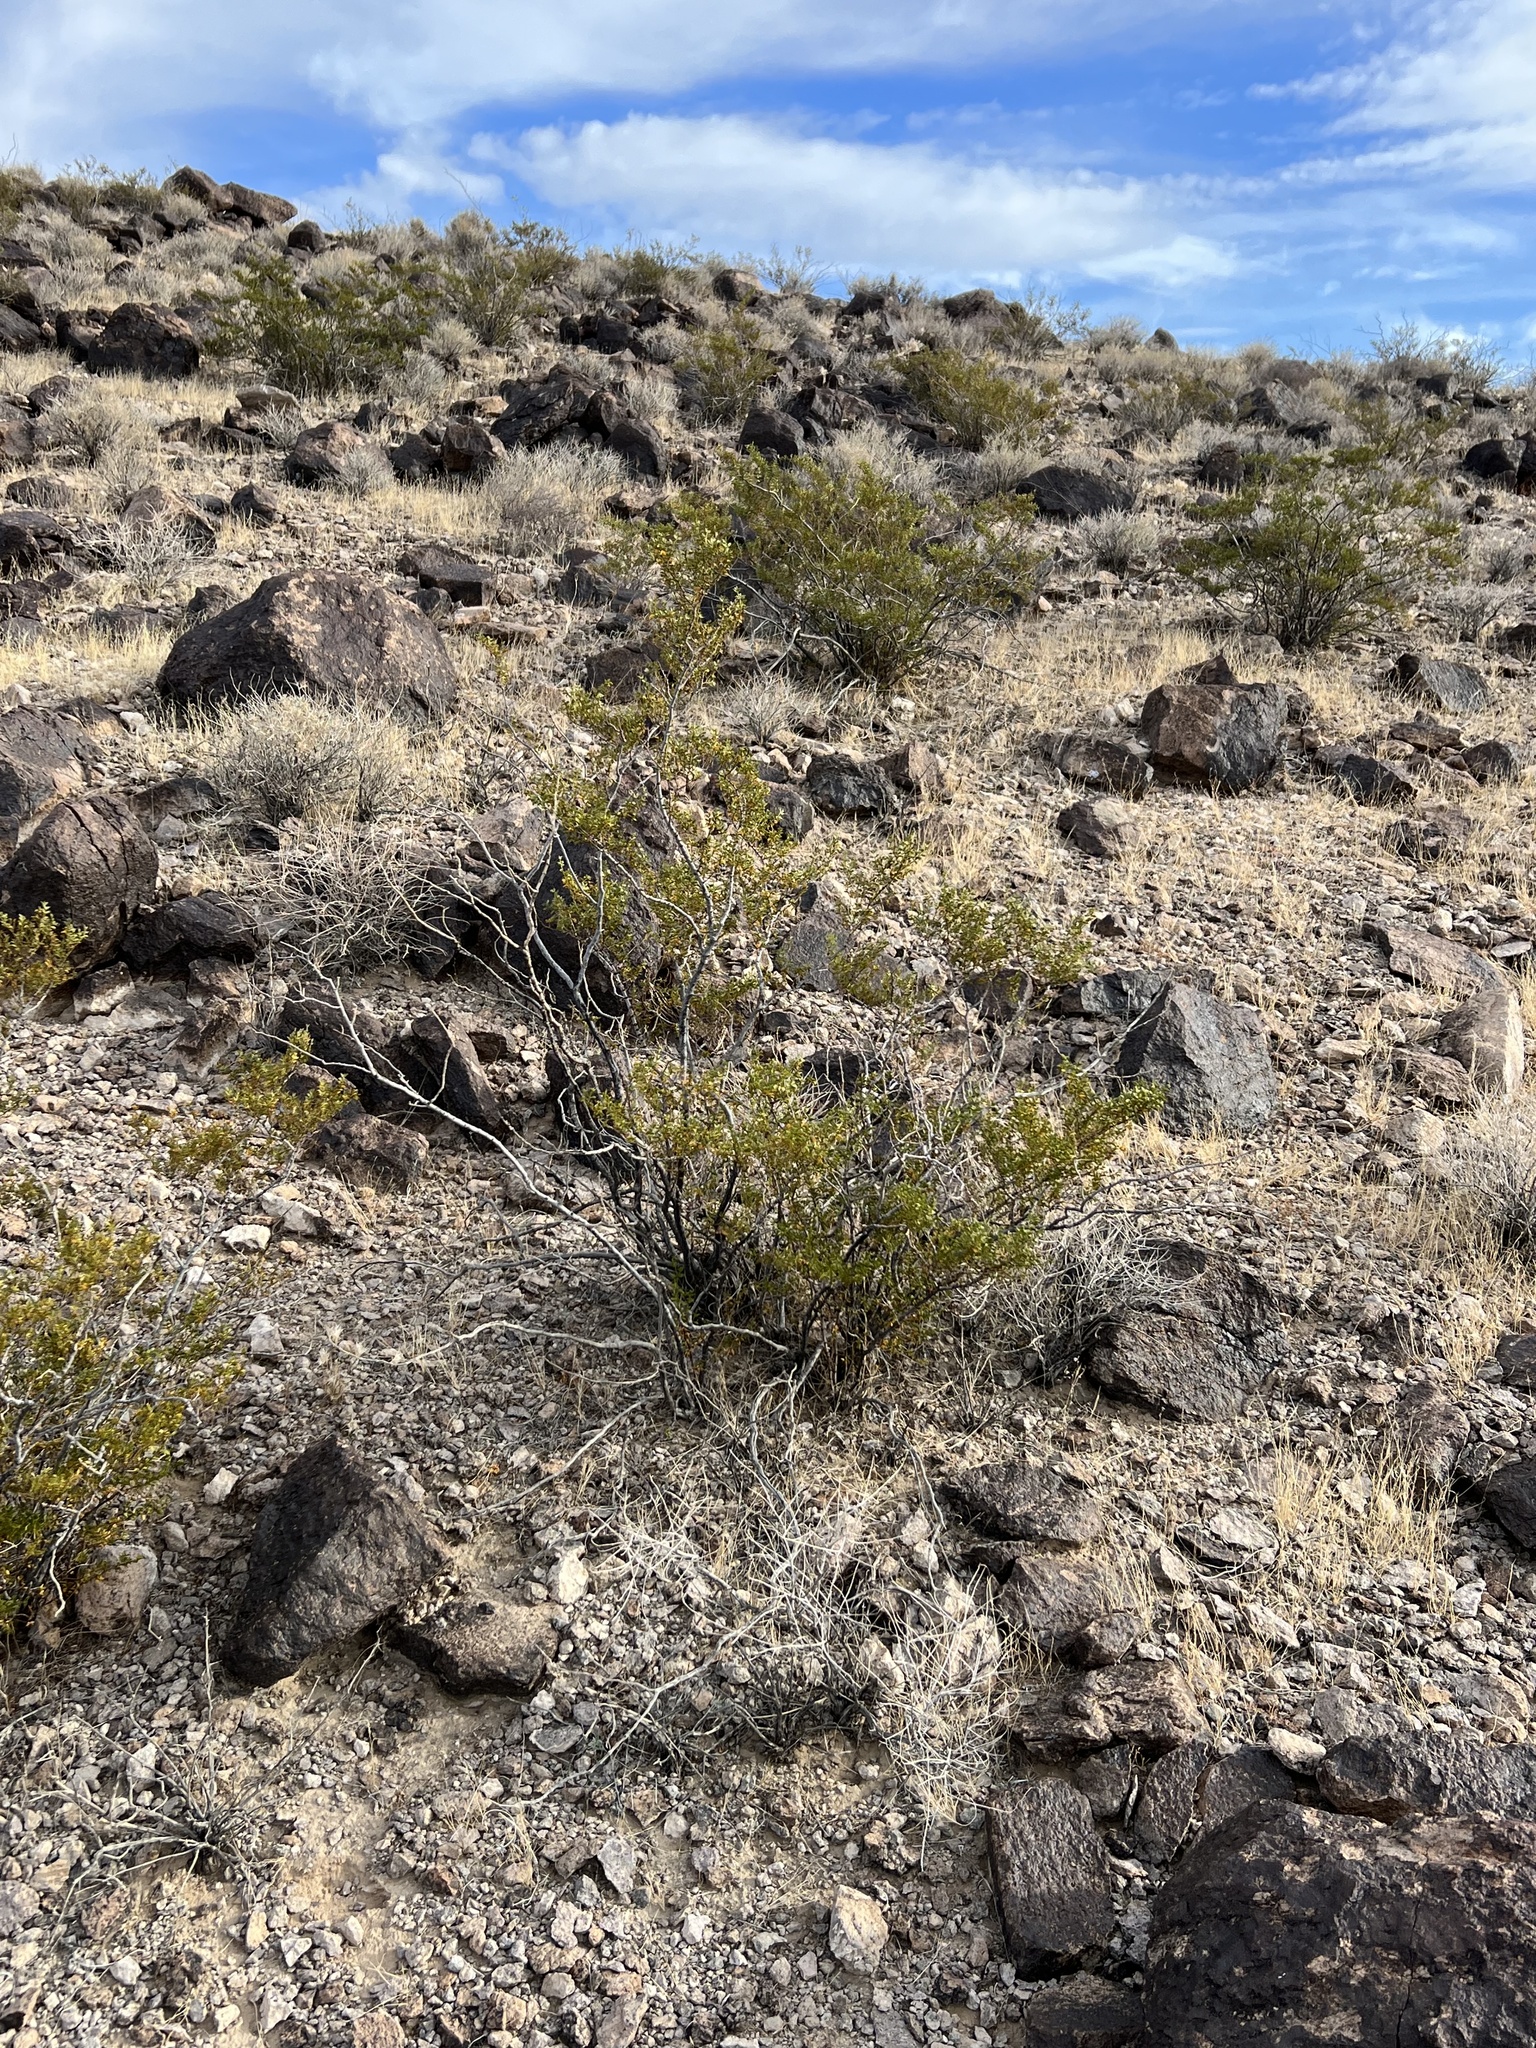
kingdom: Plantae
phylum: Tracheophyta
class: Magnoliopsida
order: Zygophyllales
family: Zygophyllaceae
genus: Larrea
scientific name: Larrea tridentata
